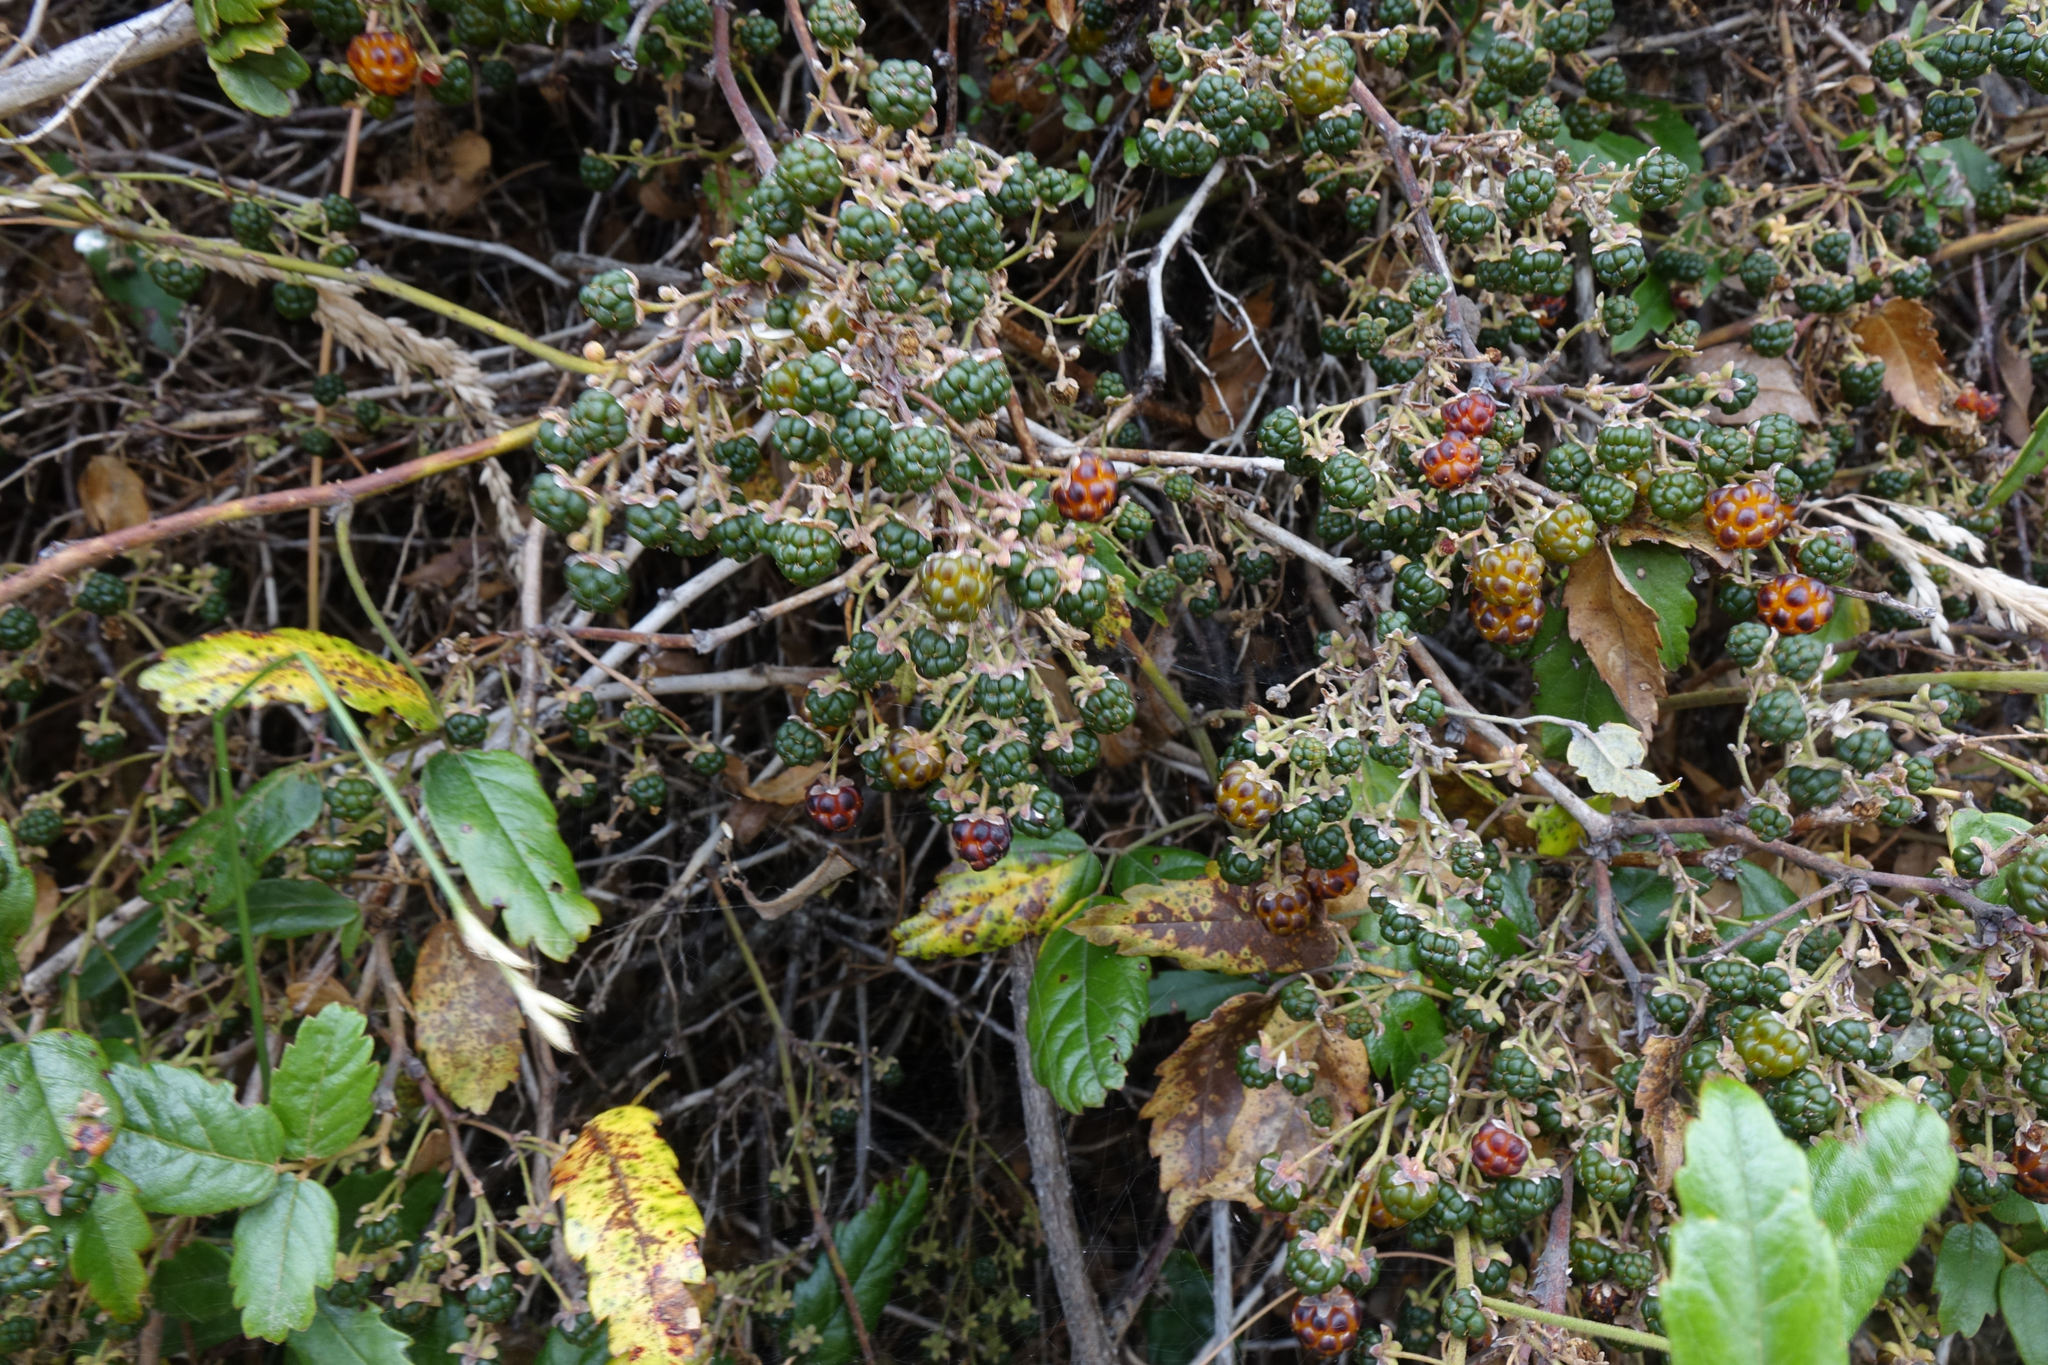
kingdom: Plantae
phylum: Tracheophyta
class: Magnoliopsida
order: Rosales
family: Rosaceae
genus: Rubus
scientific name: Rubus schmidelioides
